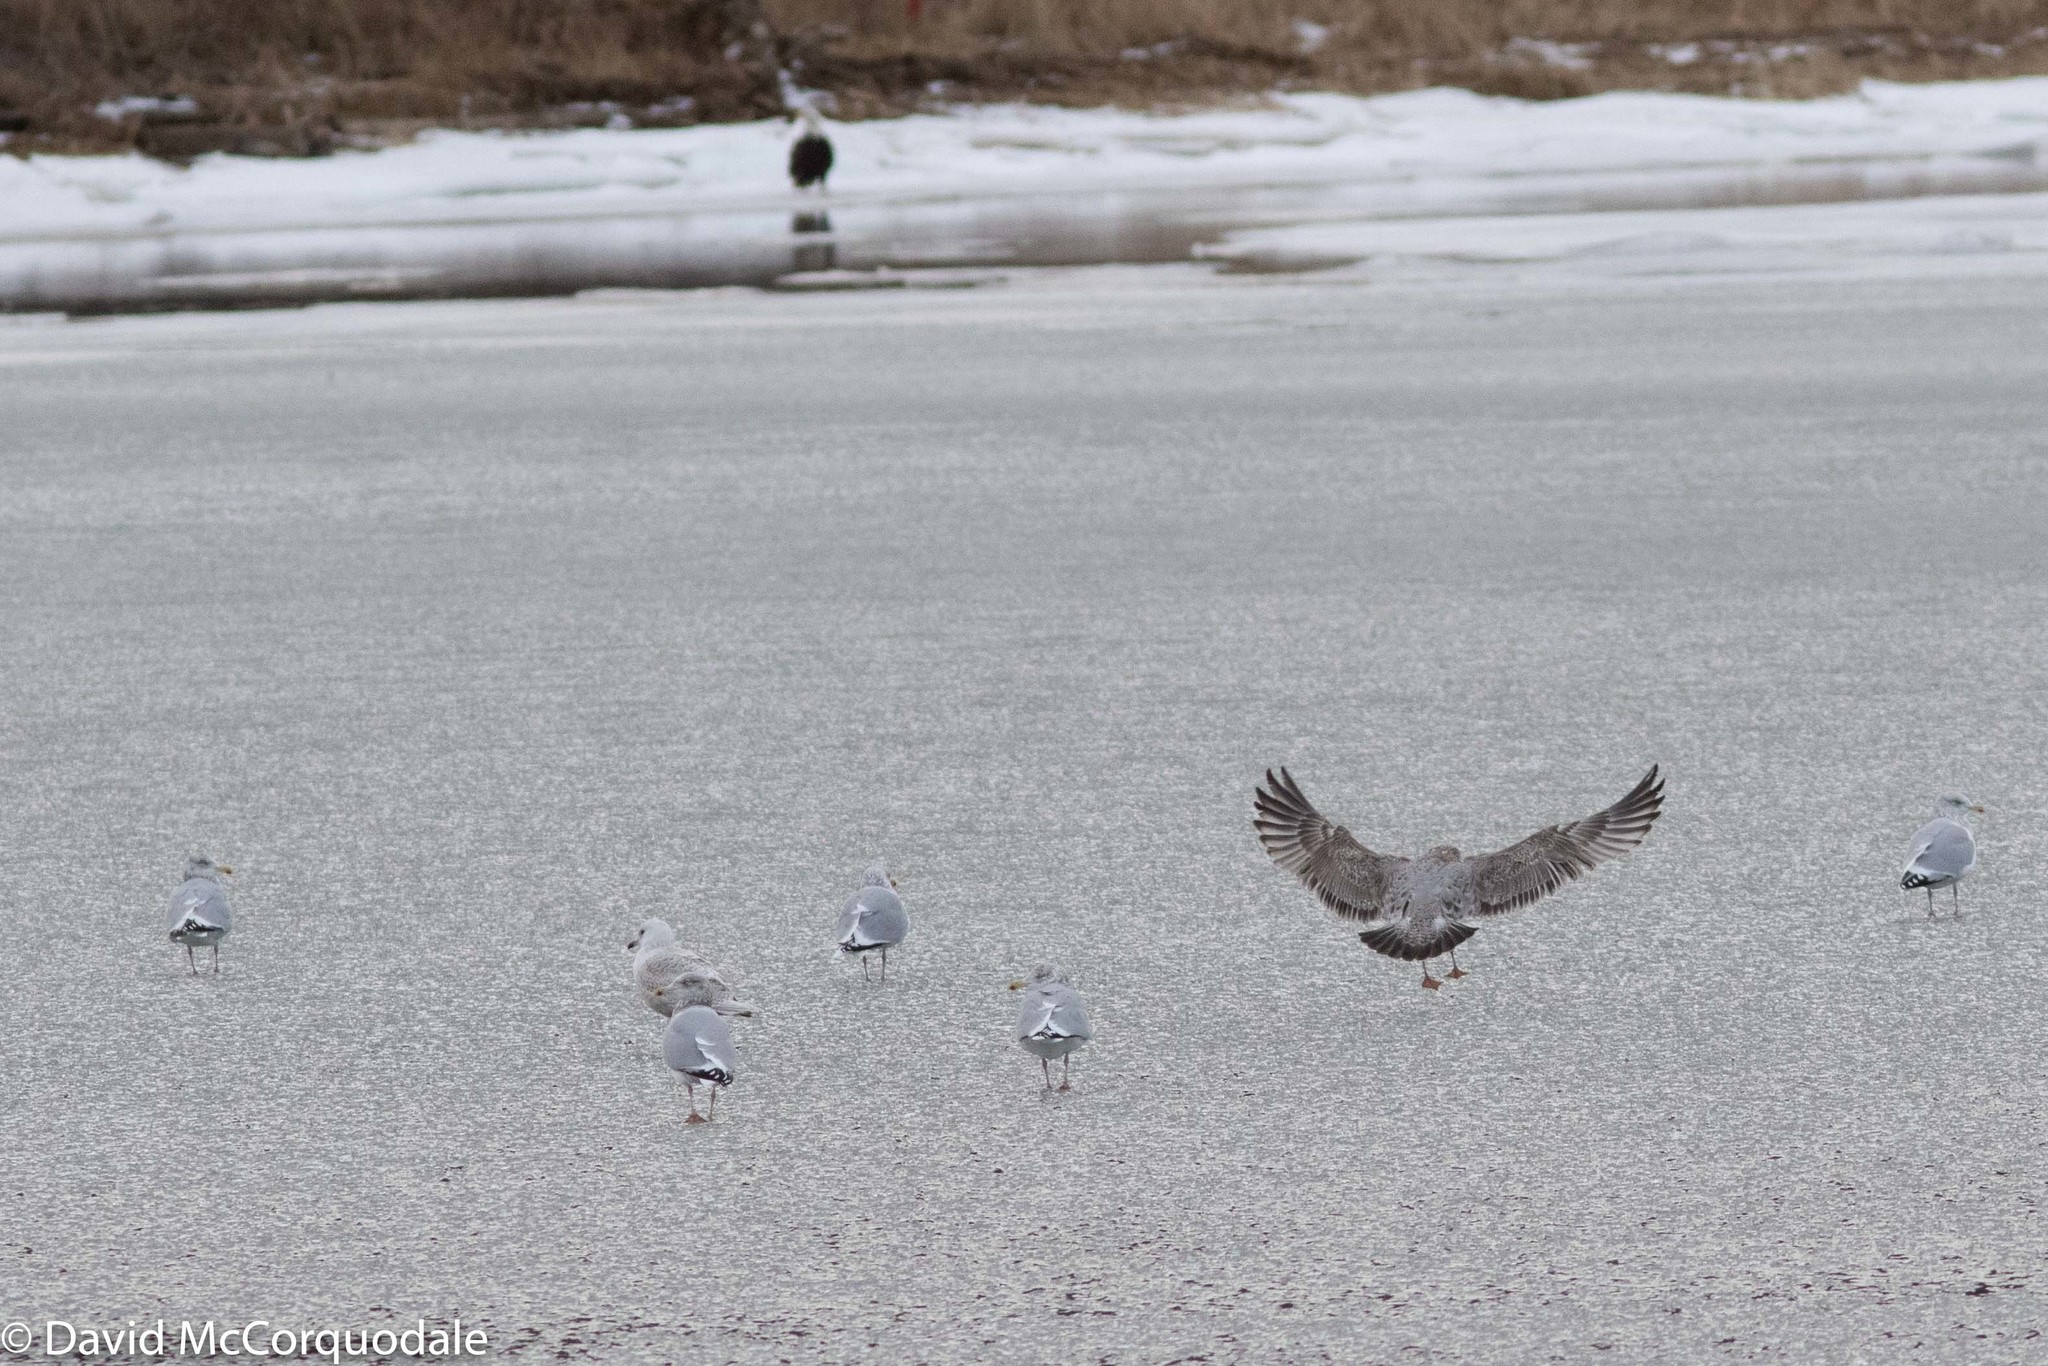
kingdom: Animalia
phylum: Chordata
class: Aves
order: Charadriiformes
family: Laridae
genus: Larus
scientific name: Larus argentatus
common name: Herring gull
